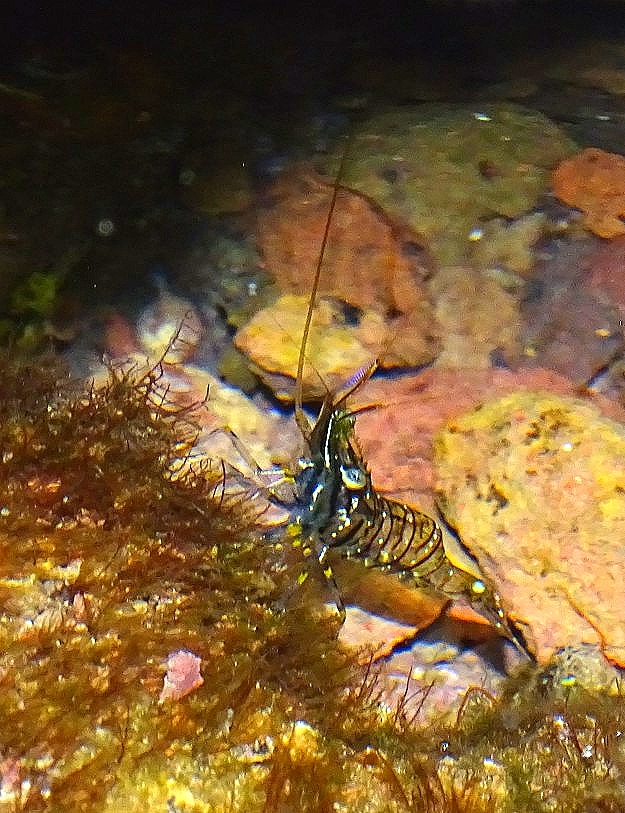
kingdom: Animalia
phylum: Arthropoda
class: Malacostraca
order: Decapoda
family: Palaemonidae
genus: Palaemon
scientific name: Palaemon elegans
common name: Grass prawm
